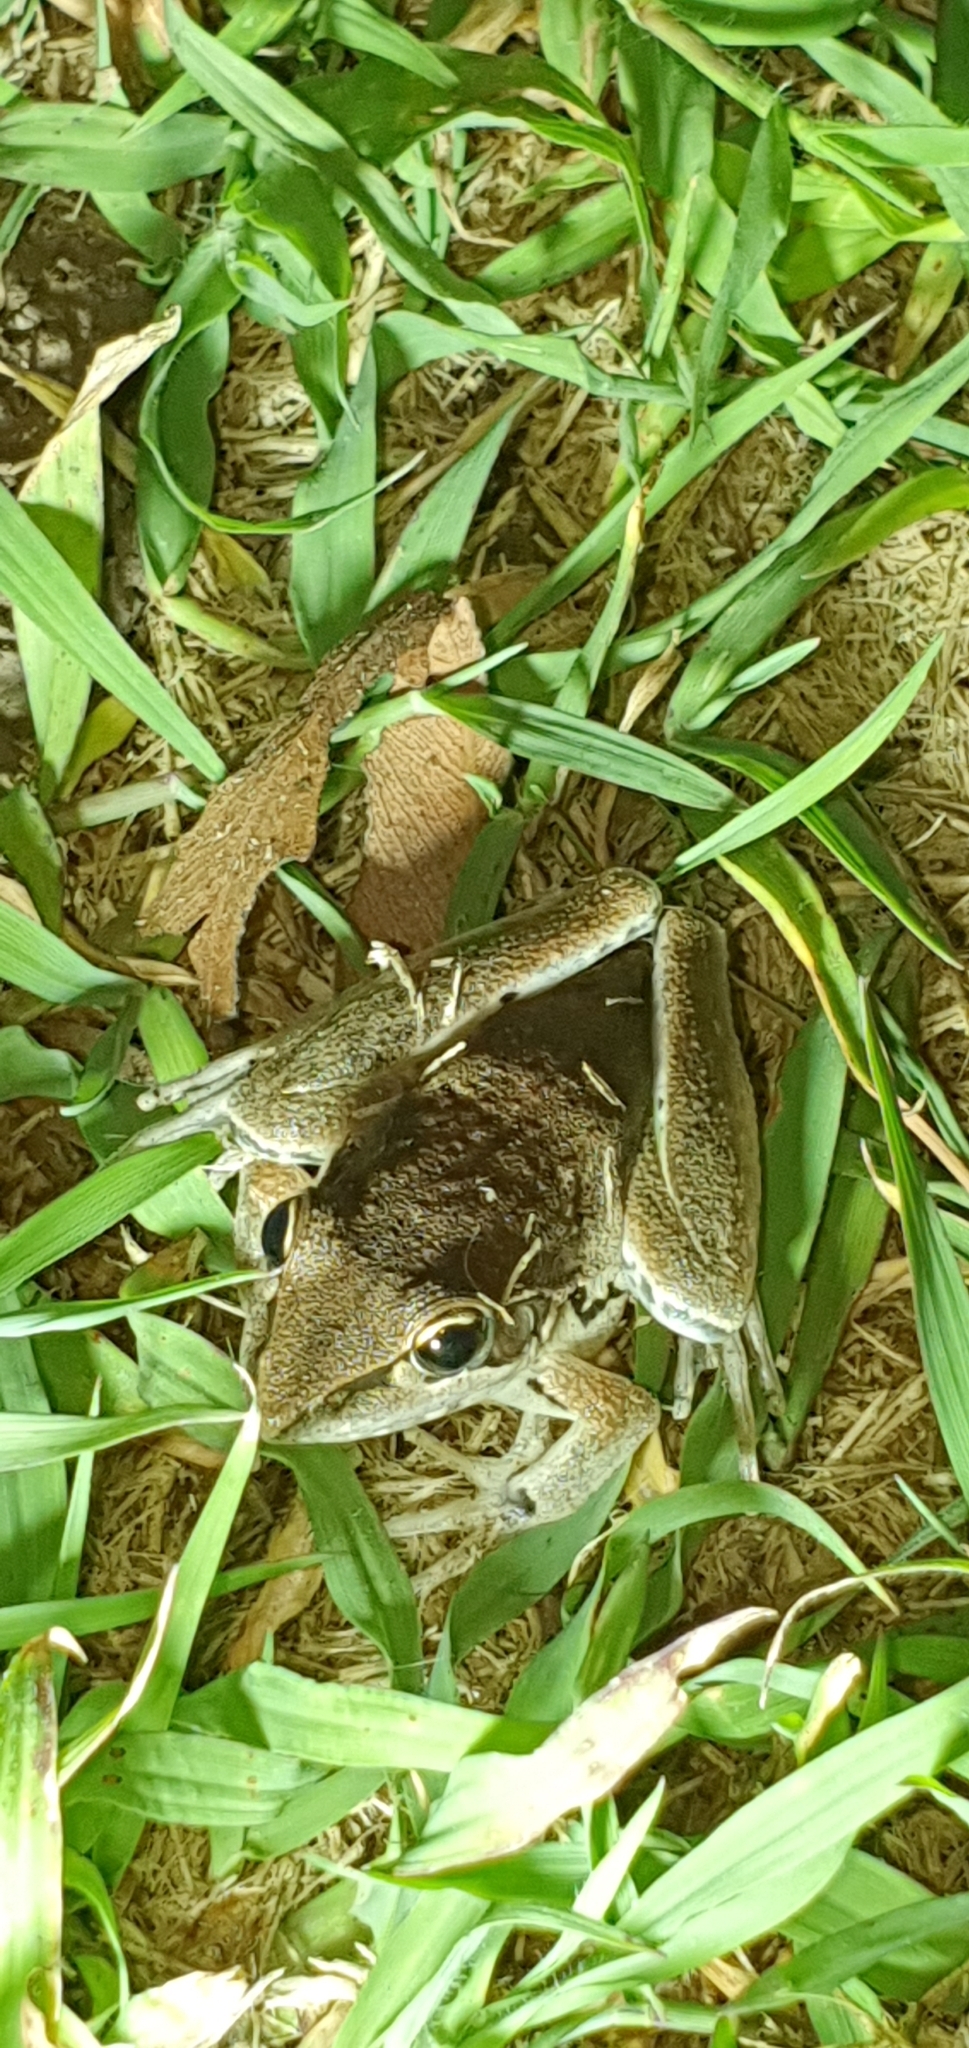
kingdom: Animalia
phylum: Chordata
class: Amphibia
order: Anura
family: Pelodryadidae
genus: Litoria
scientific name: Litoria latopalmata
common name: Broad-palmed rocket frog
